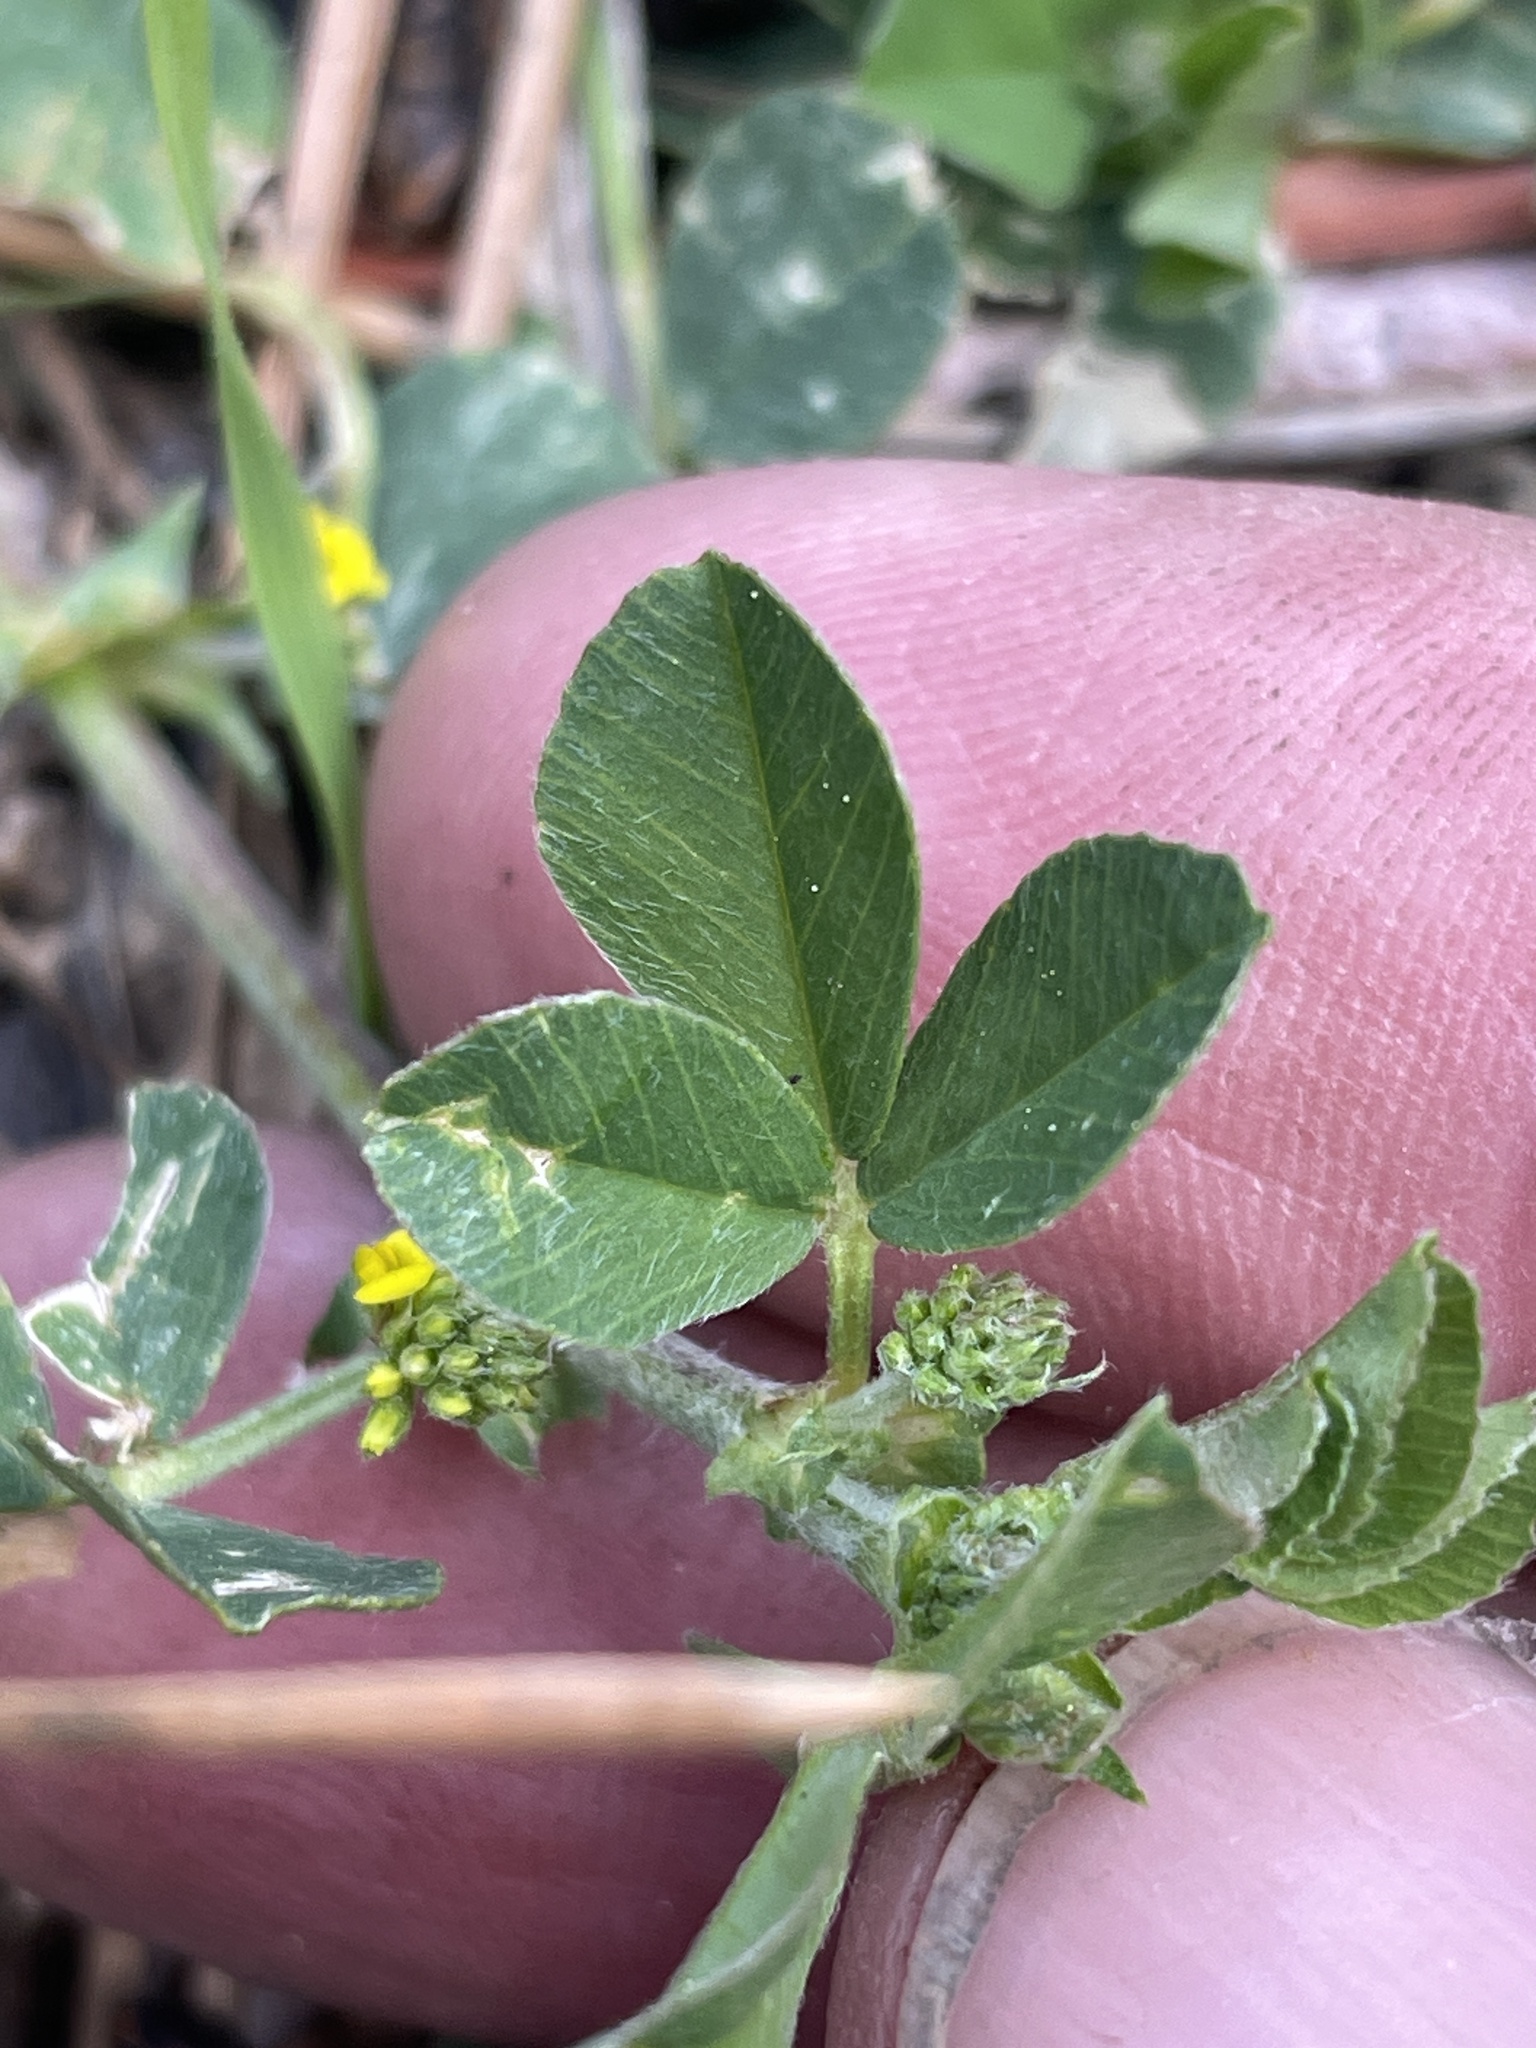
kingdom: Plantae
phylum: Tracheophyta
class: Magnoliopsida
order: Fabales
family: Fabaceae
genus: Medicago
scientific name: Medicago lupulina
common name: Black medick
